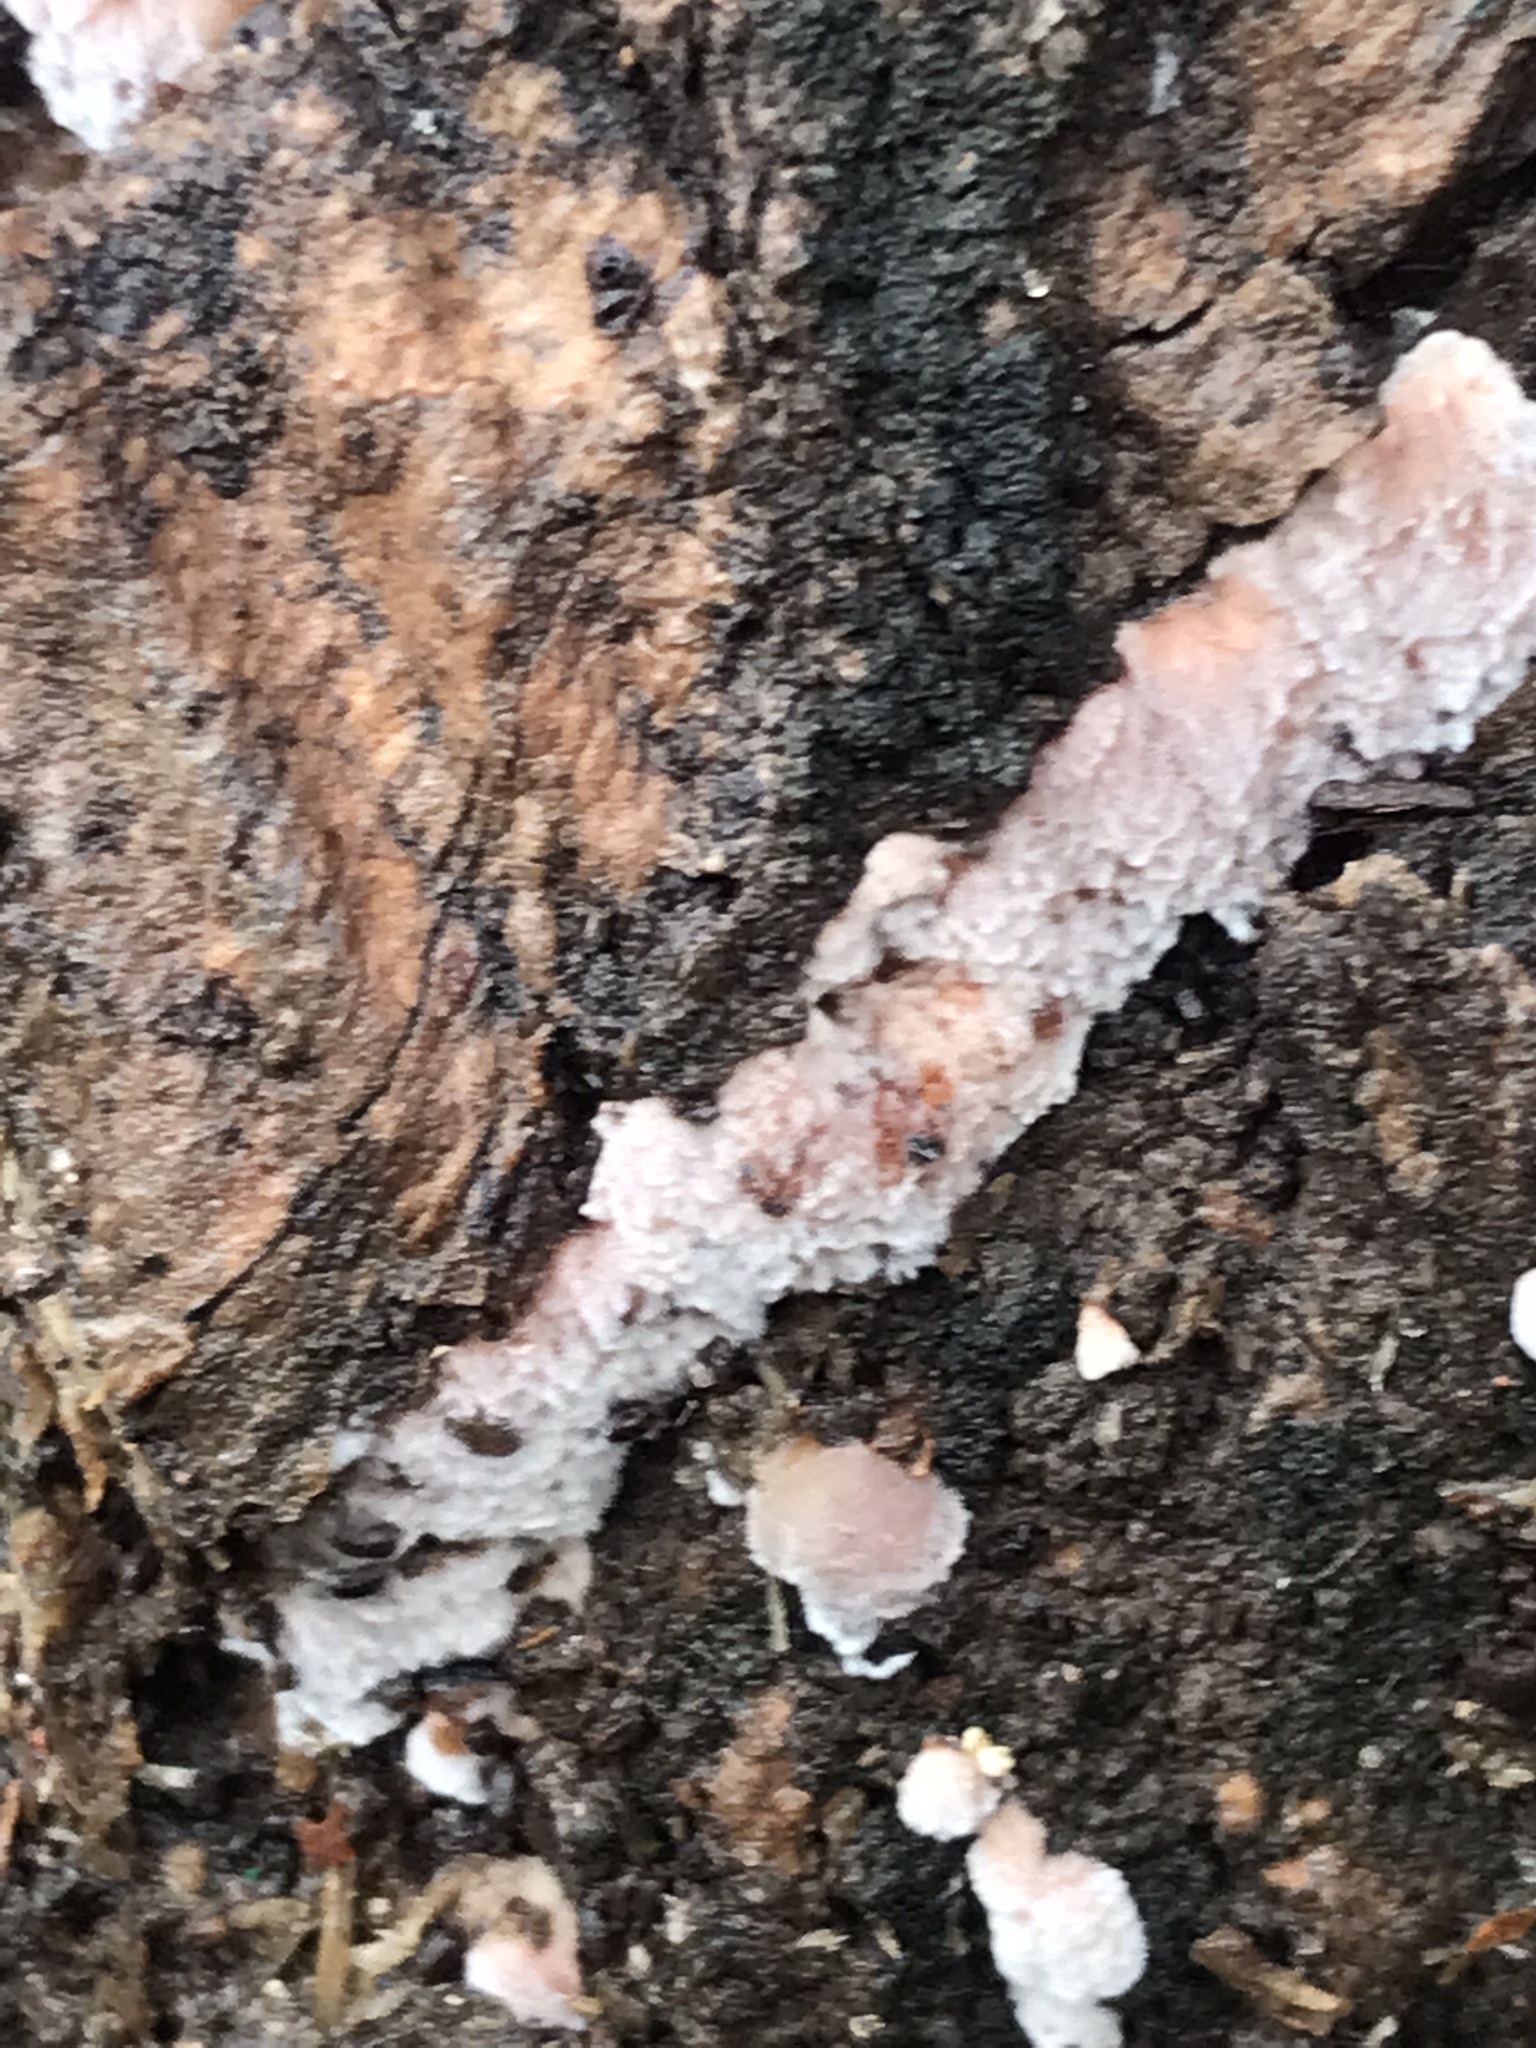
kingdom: Fungi
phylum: Basidiomycota
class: Agaricomycetes
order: Corticiales
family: Punctulariaceae
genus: Punctularia
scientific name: Punctularia atropurpurascens
